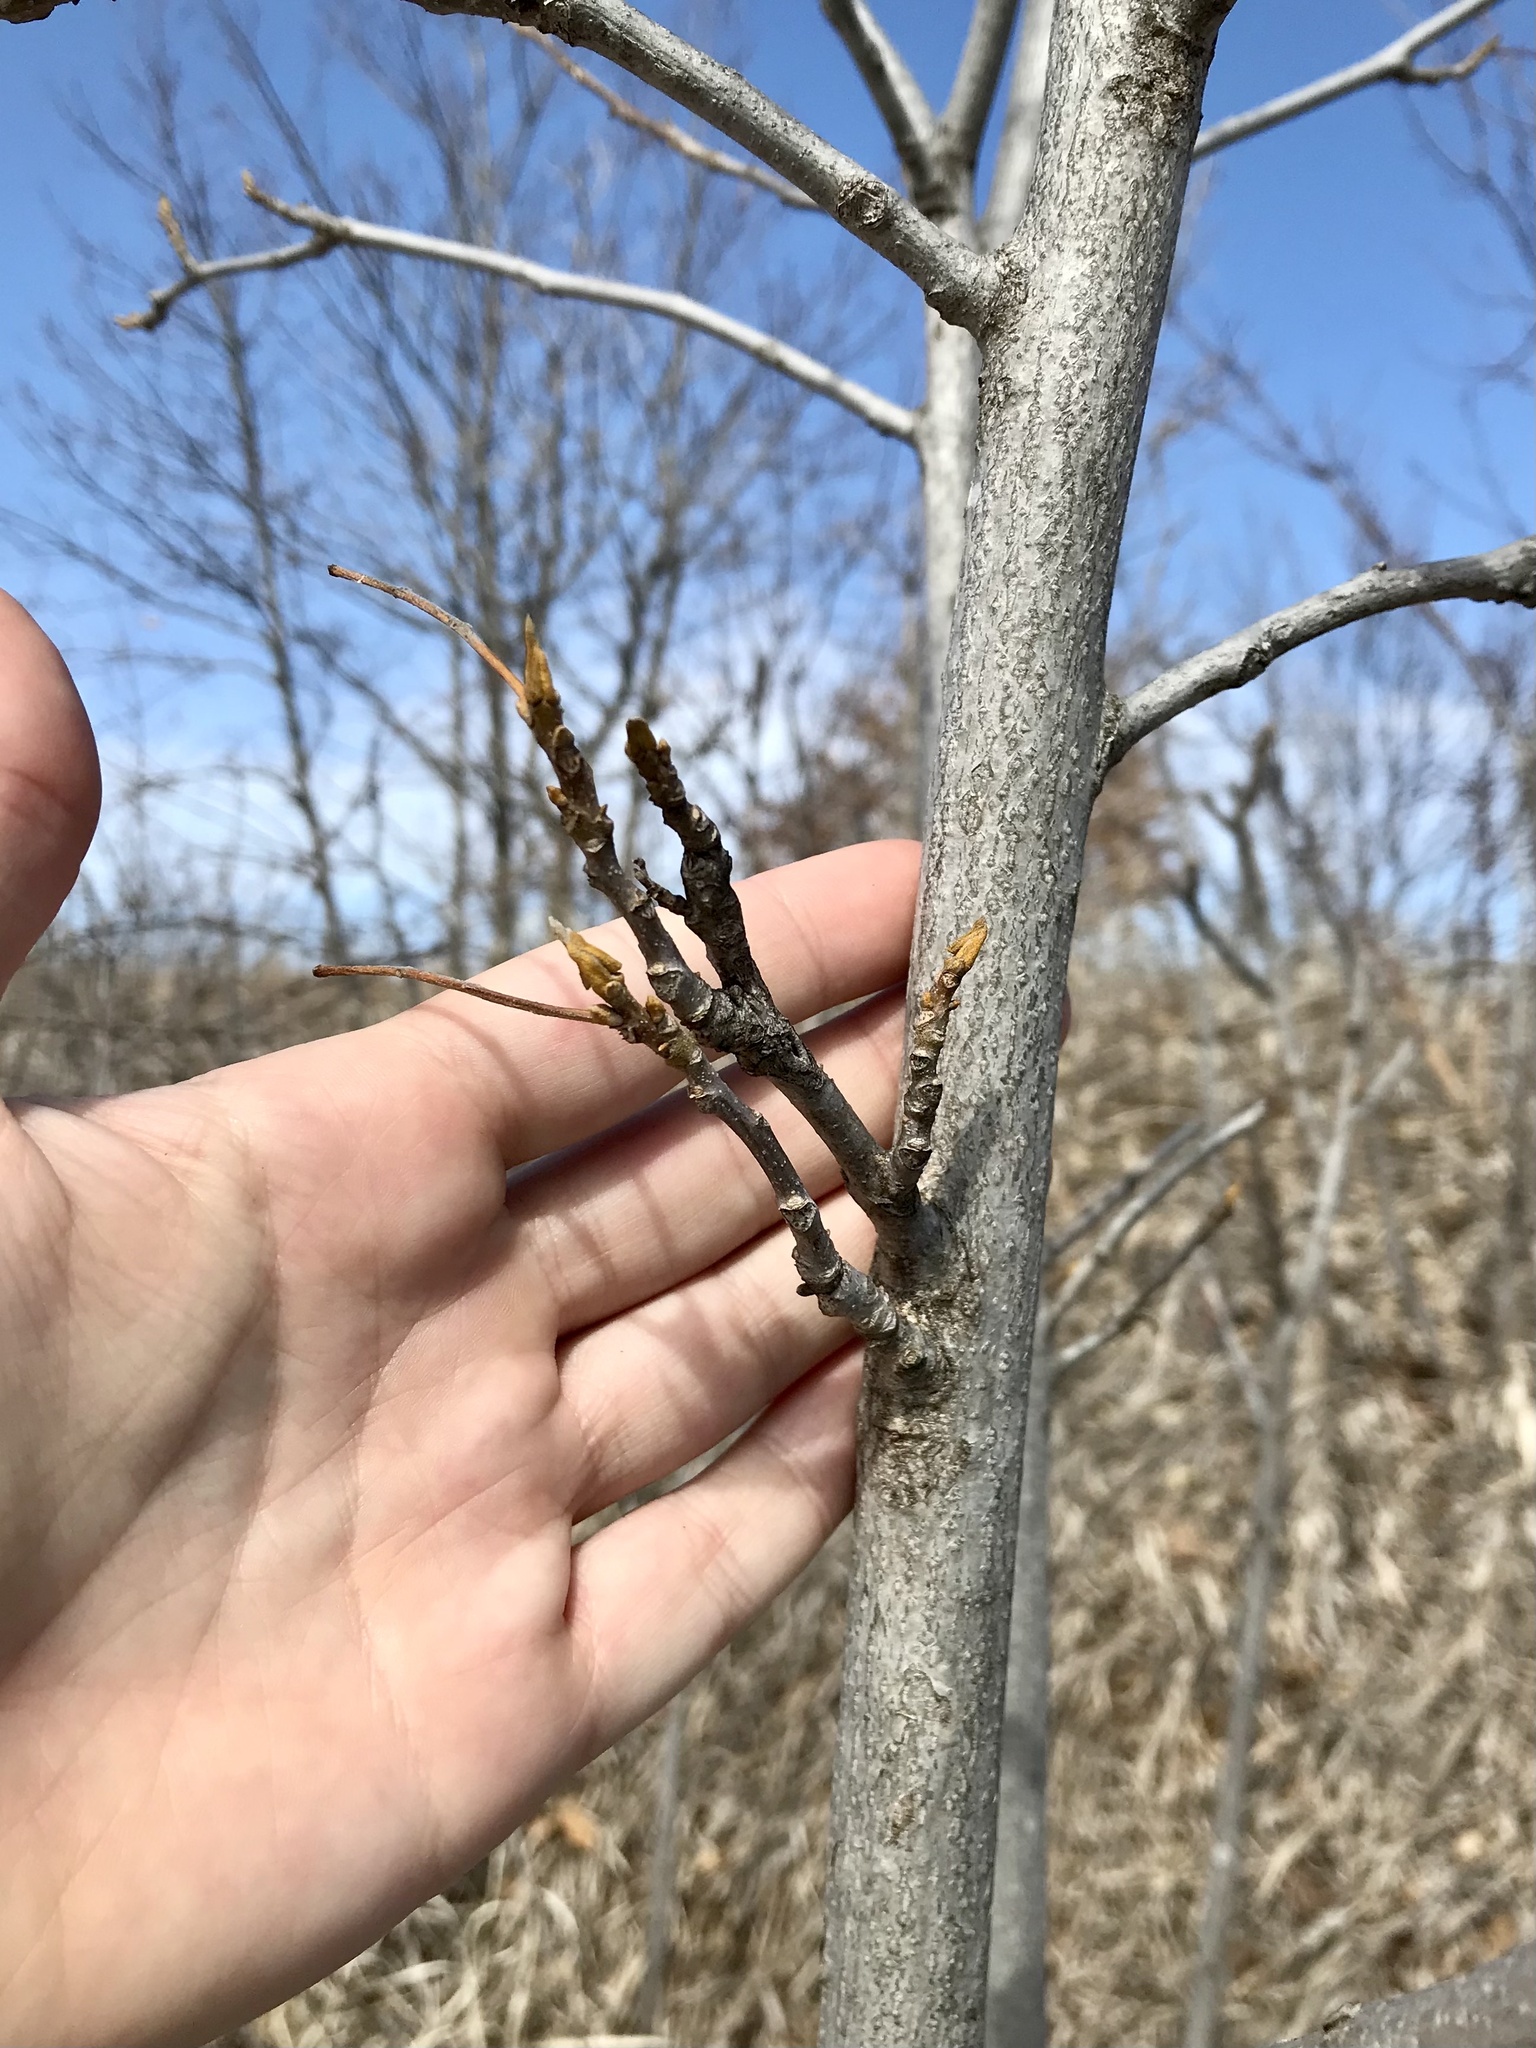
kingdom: Plantae
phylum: Tracheophyta
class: Magnoliopsida
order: Fagales
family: Juglandaceae
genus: Carya
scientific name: Carya cordiformis
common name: Bitternut hickory
